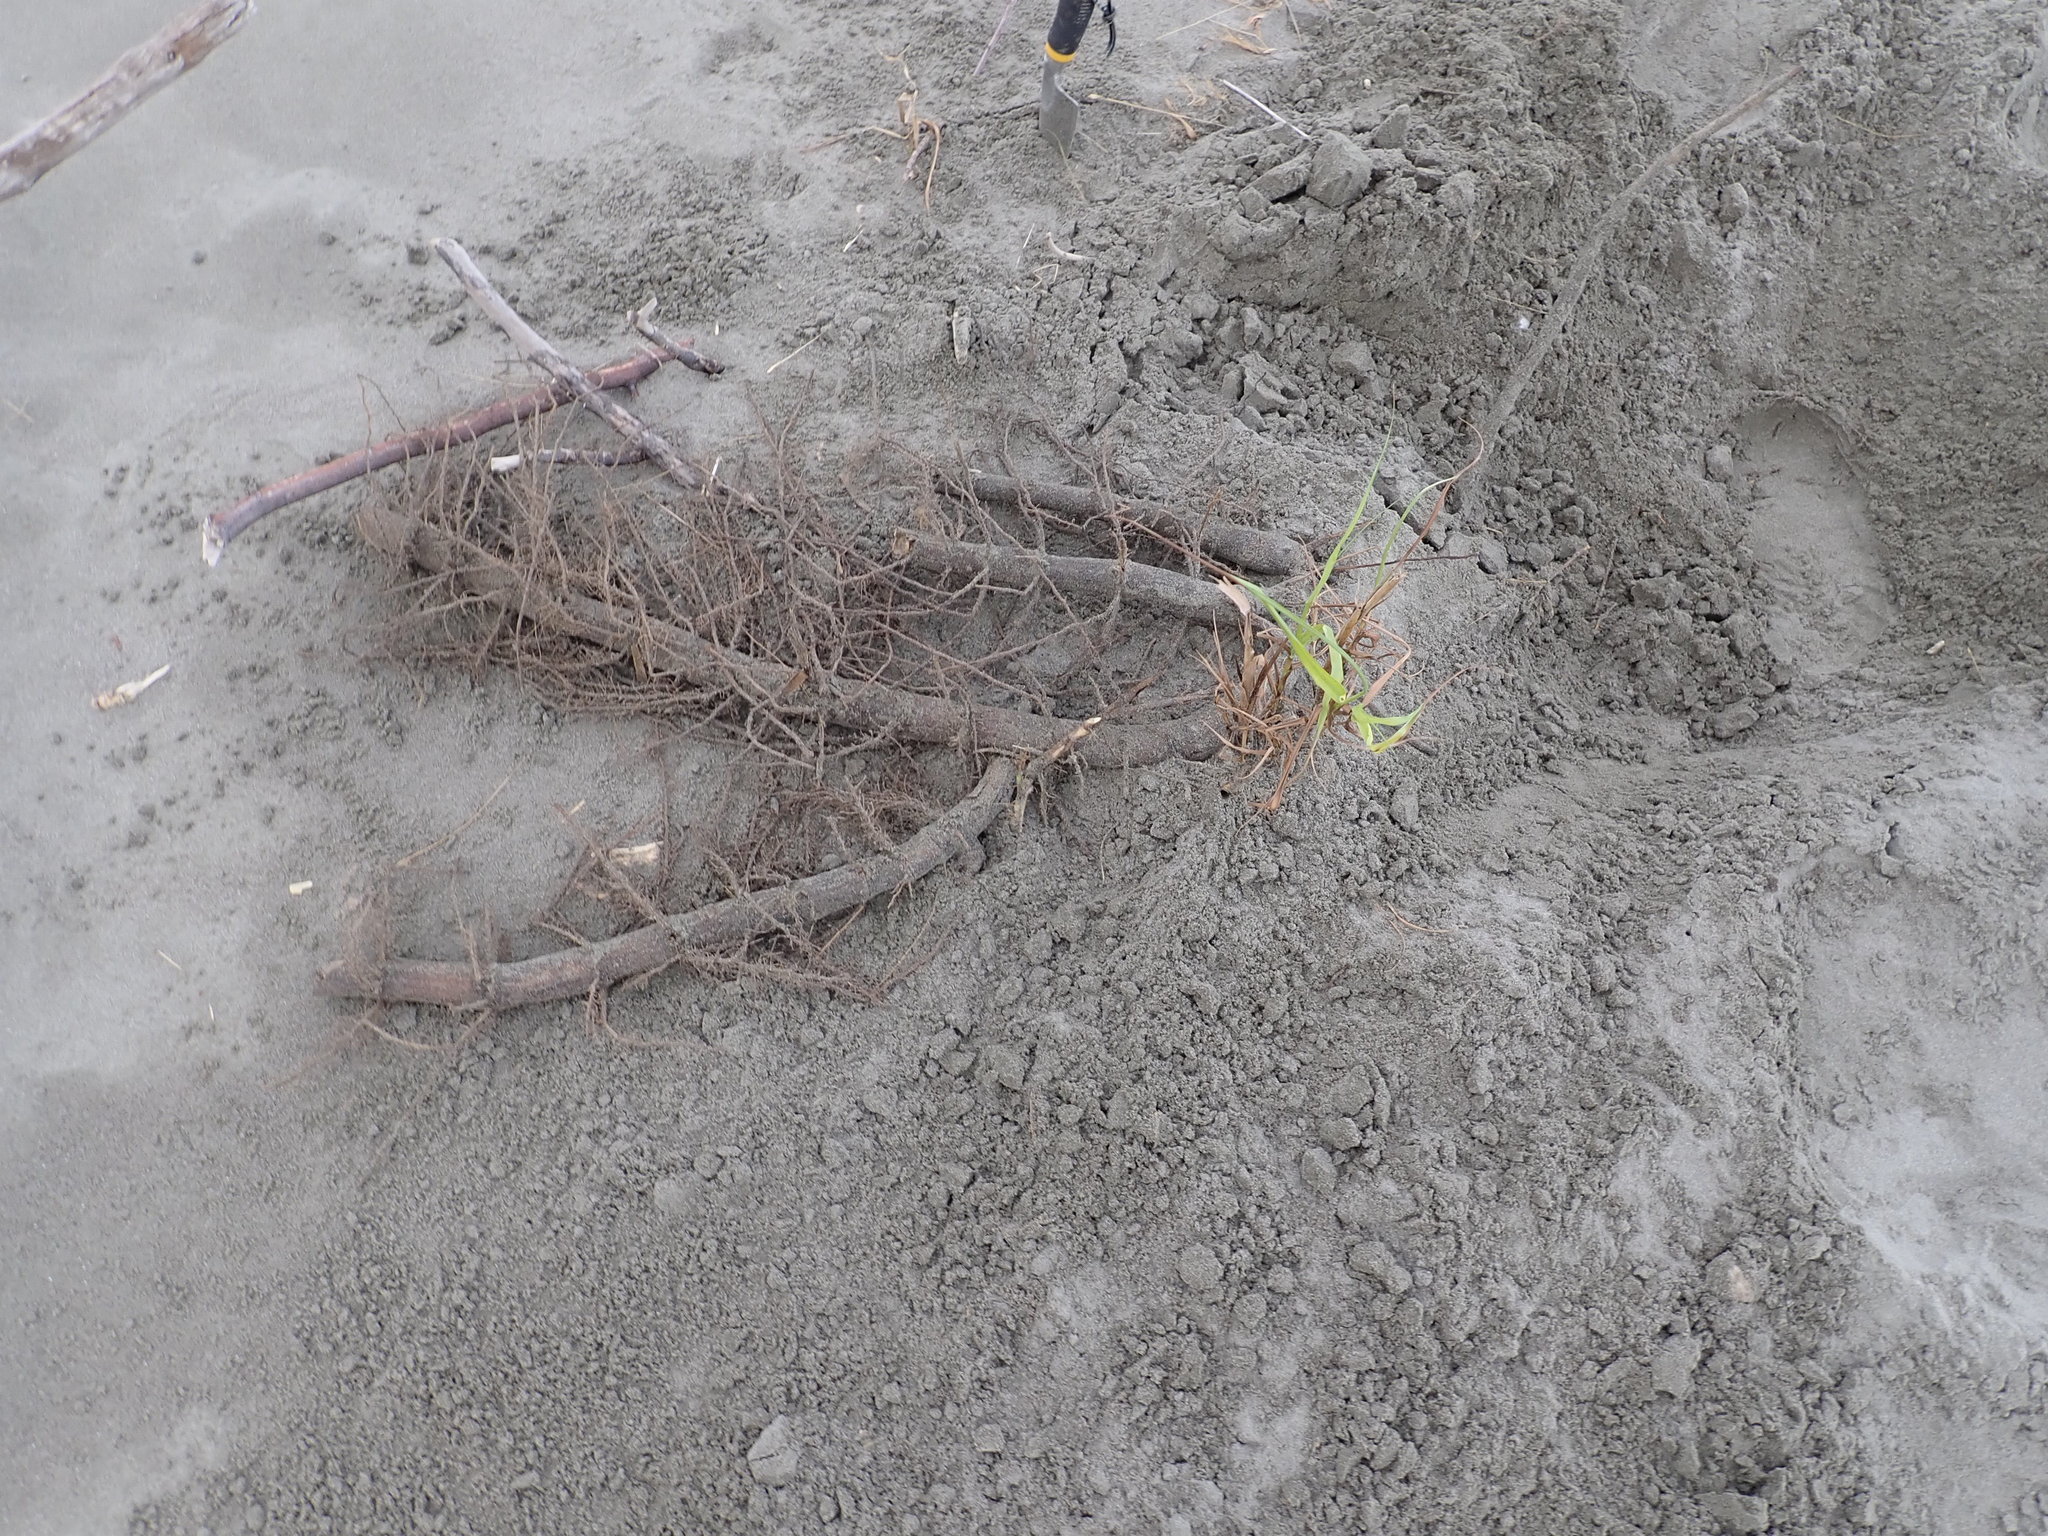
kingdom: Plantae
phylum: Tracheophyta
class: Liliopsida
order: Poales
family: Poaceae
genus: Phragmites
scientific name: Phragmites karka
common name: Tropical reed
